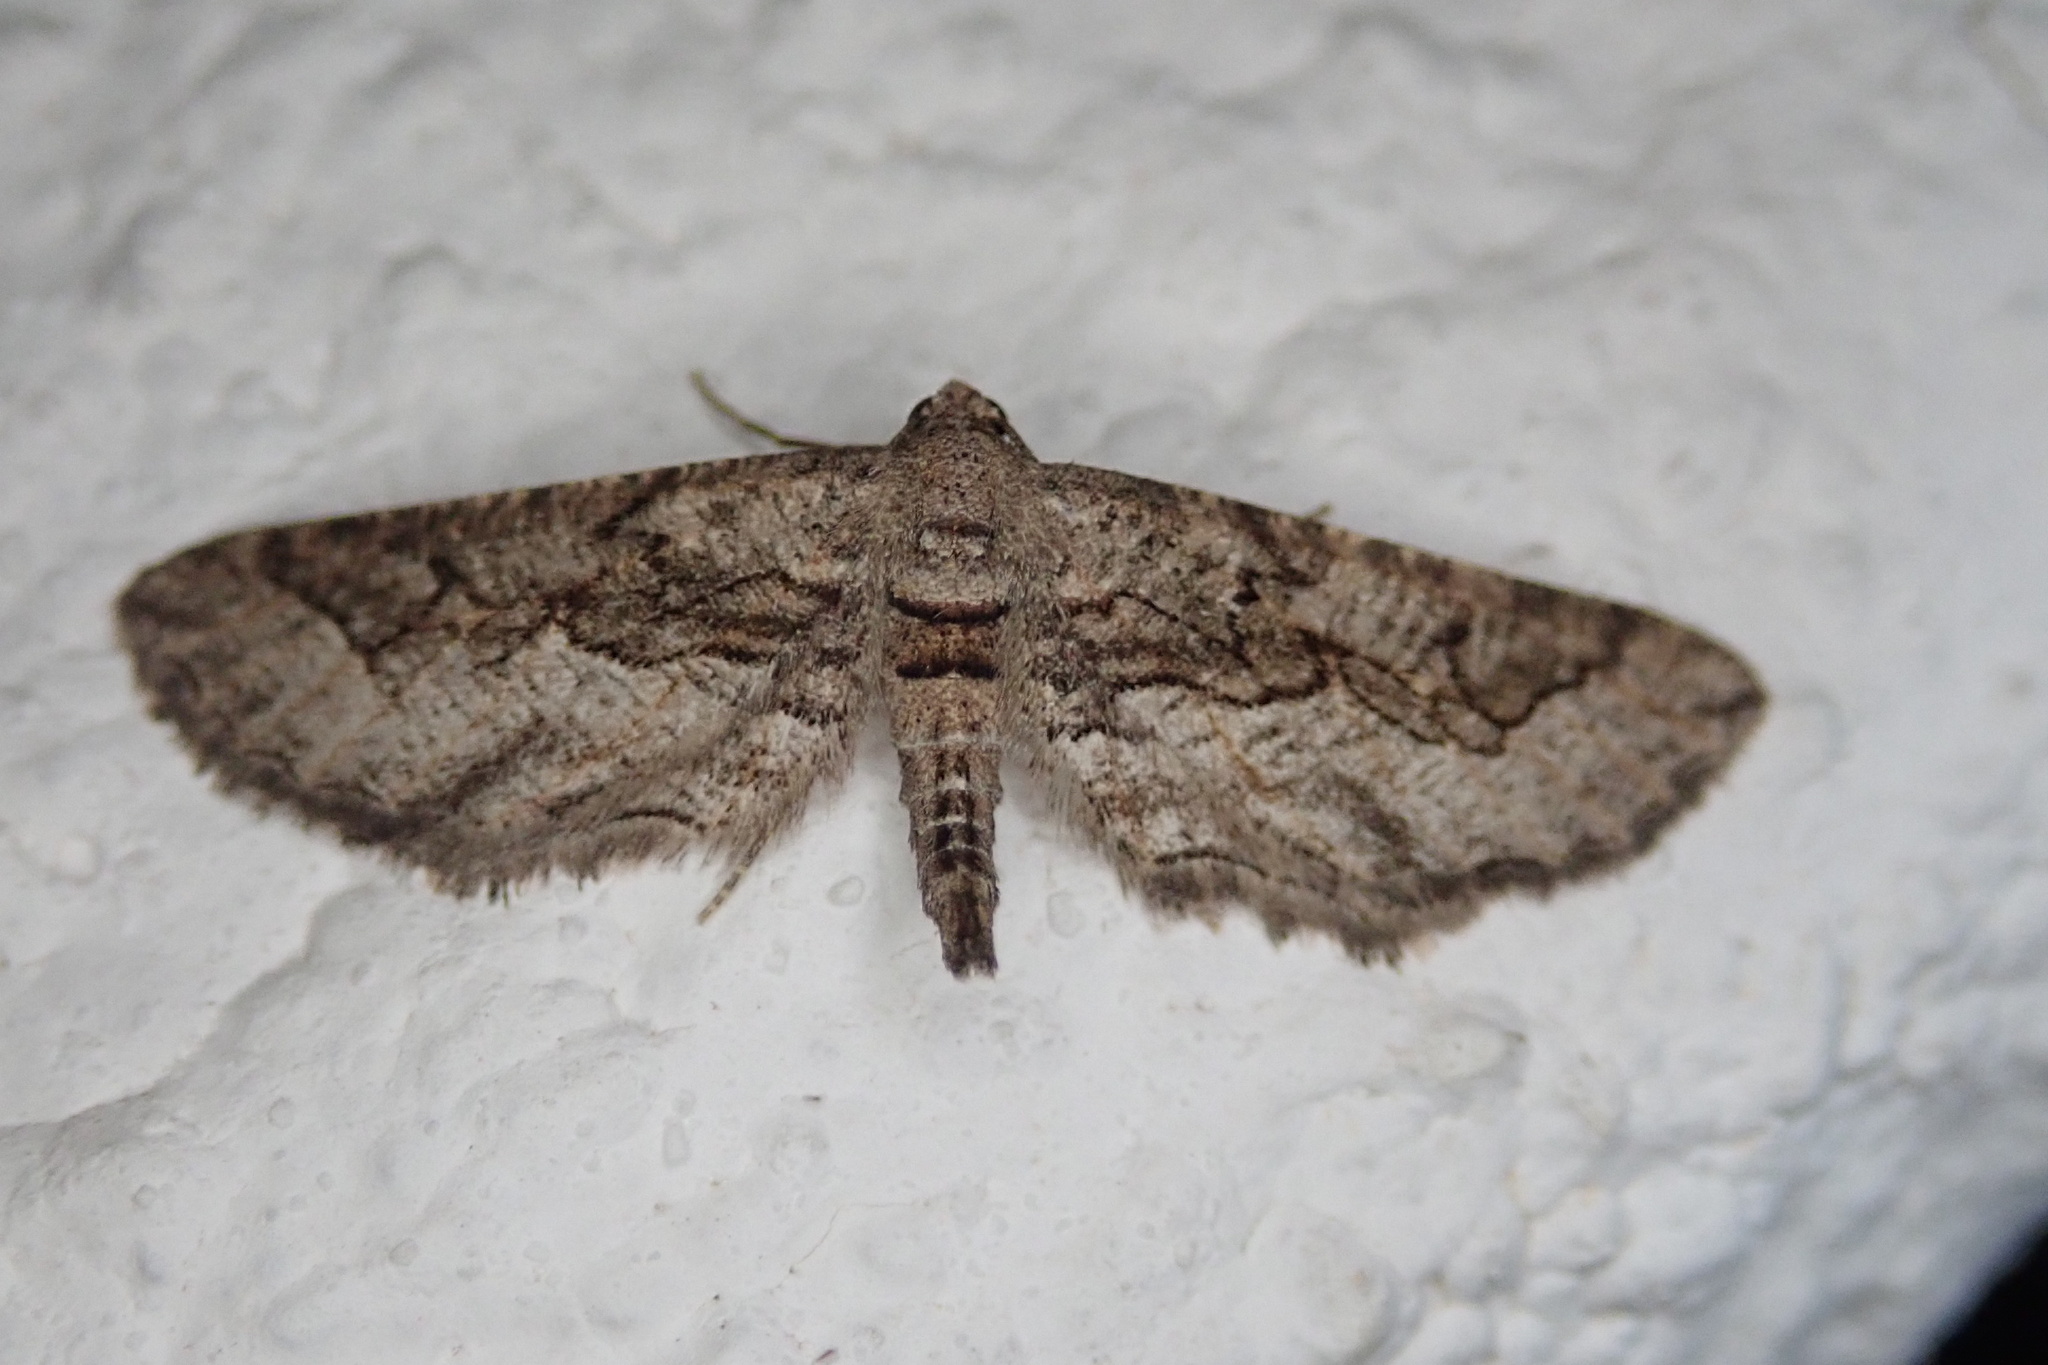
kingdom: Animalia
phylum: Arthropoda
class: Insecta
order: Lepidoptera
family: Geometridae
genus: Hebdomophruda
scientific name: Hebdomophruda sculpta
